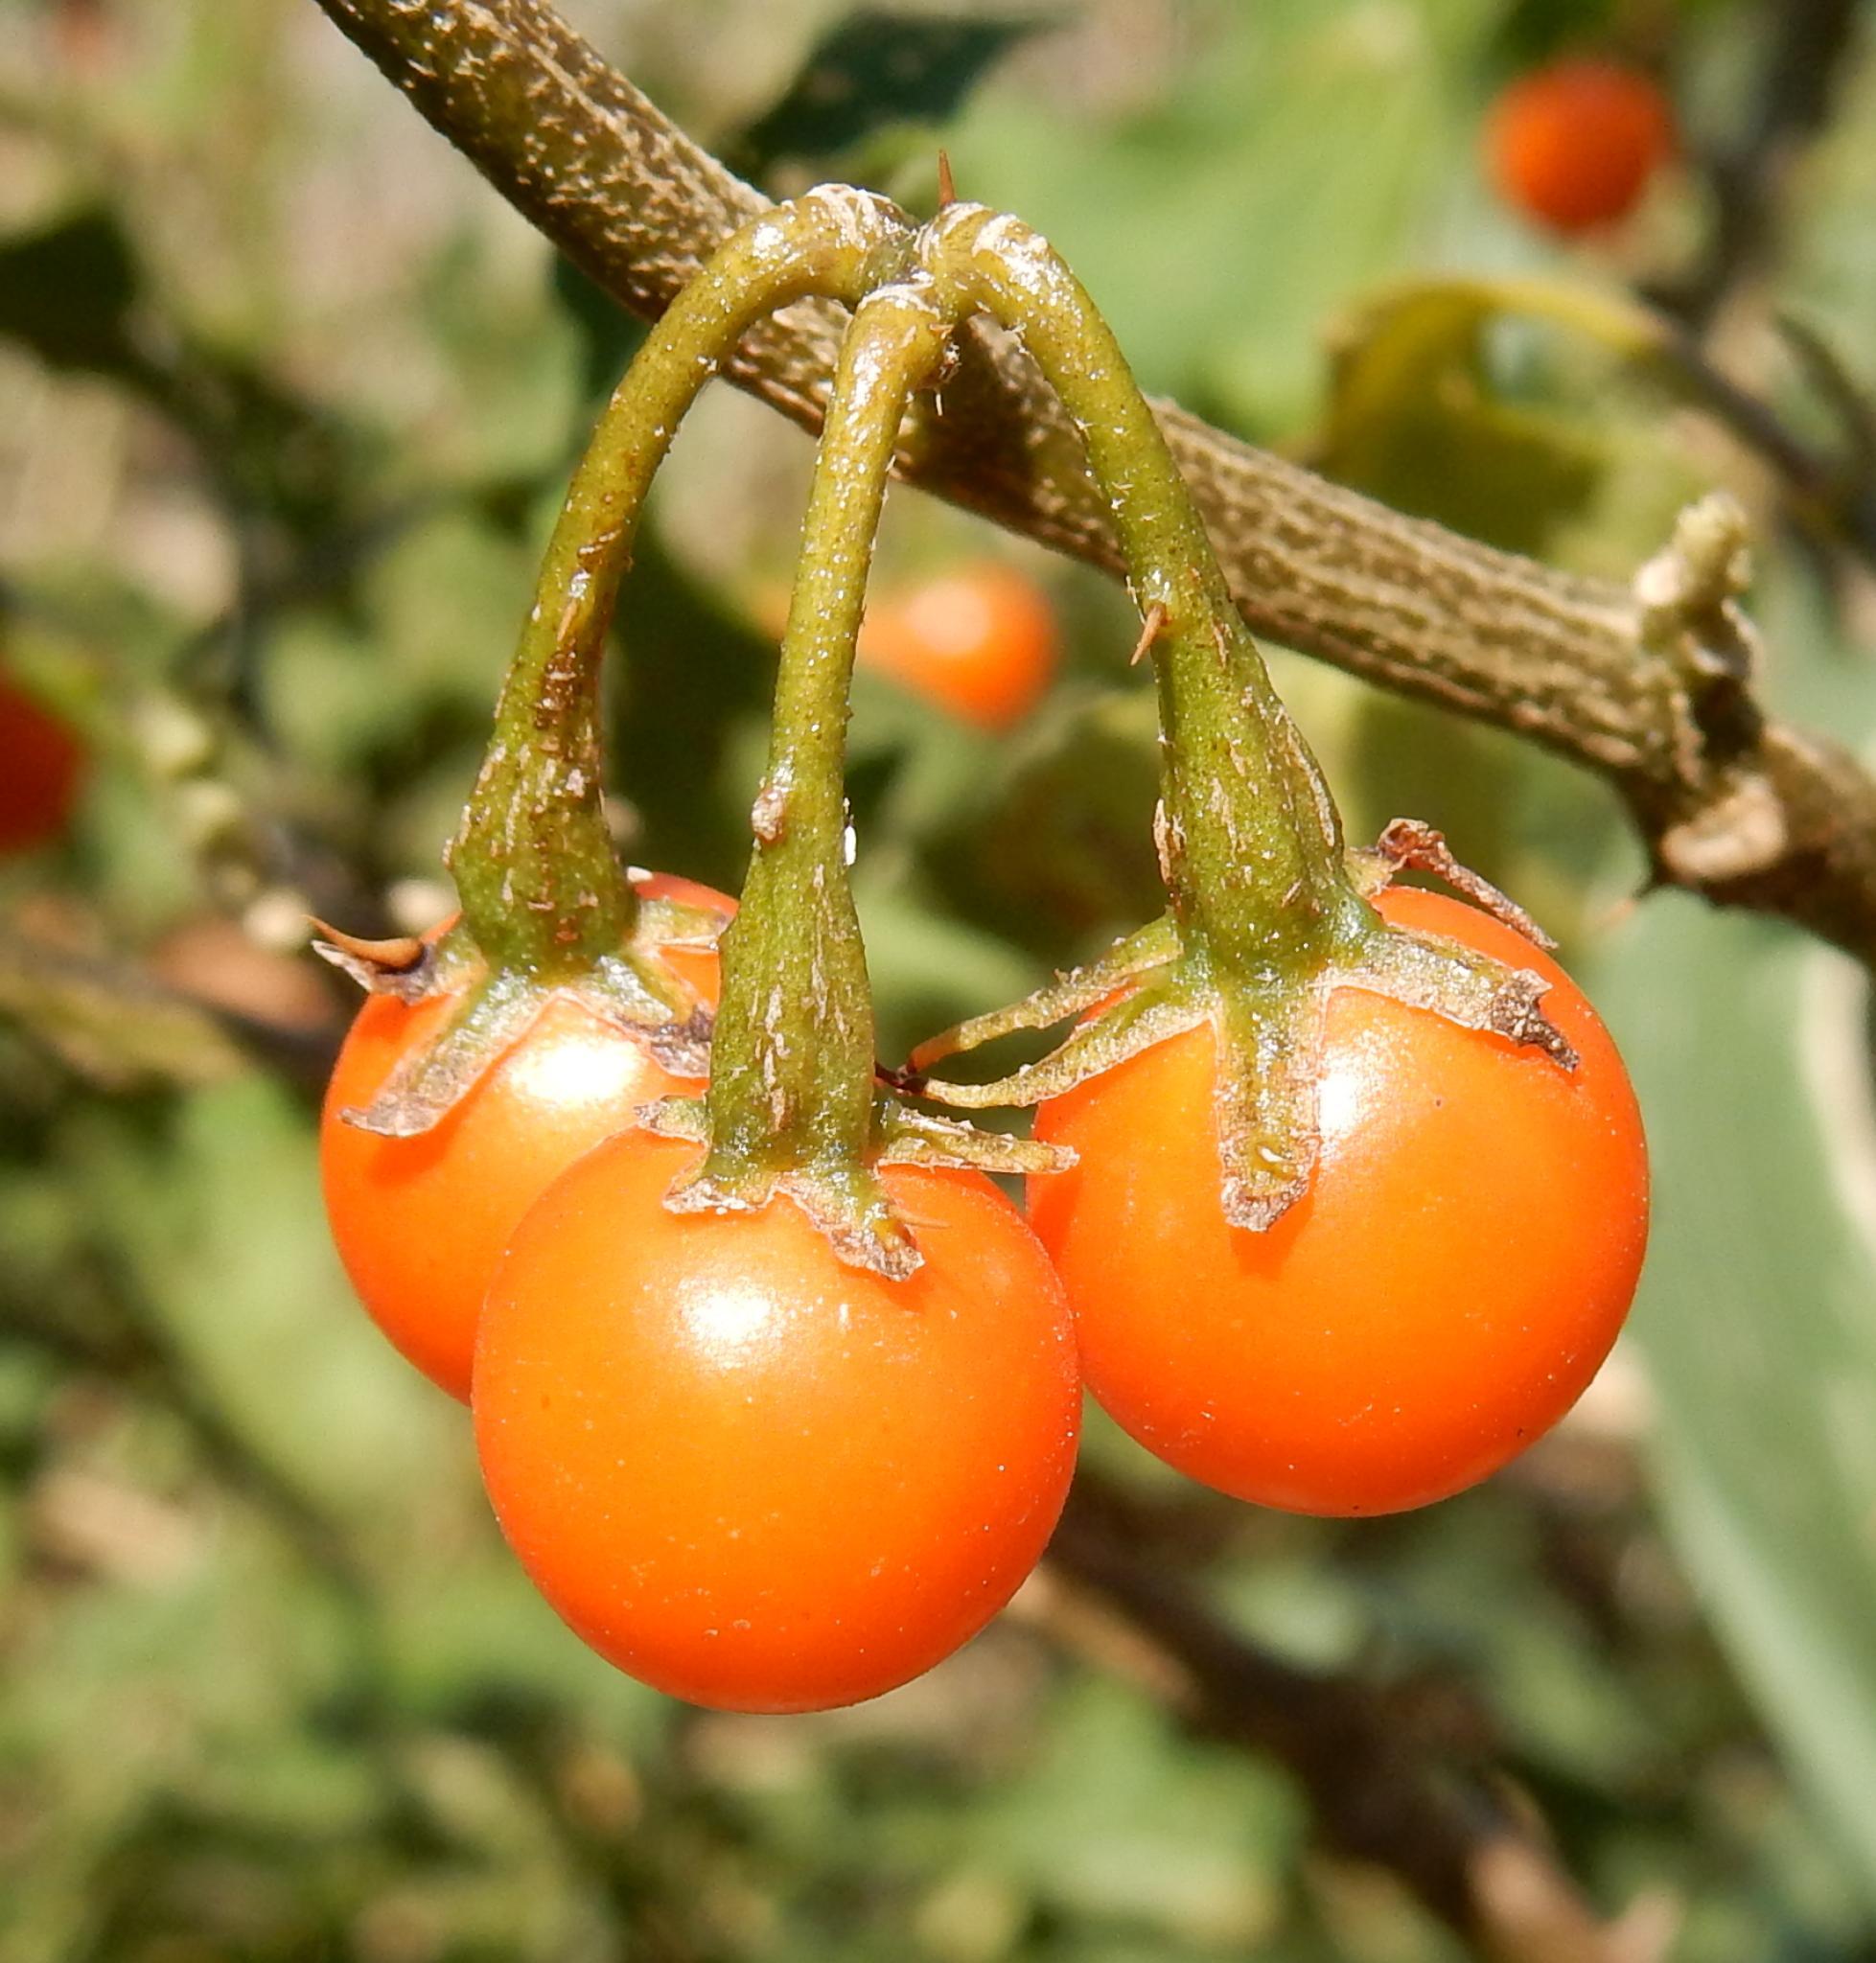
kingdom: Plantae
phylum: Tracheophyta
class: Magnoliopsida
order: Solanales
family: Solanaceae
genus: Solanum
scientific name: Solanum rubetorum
